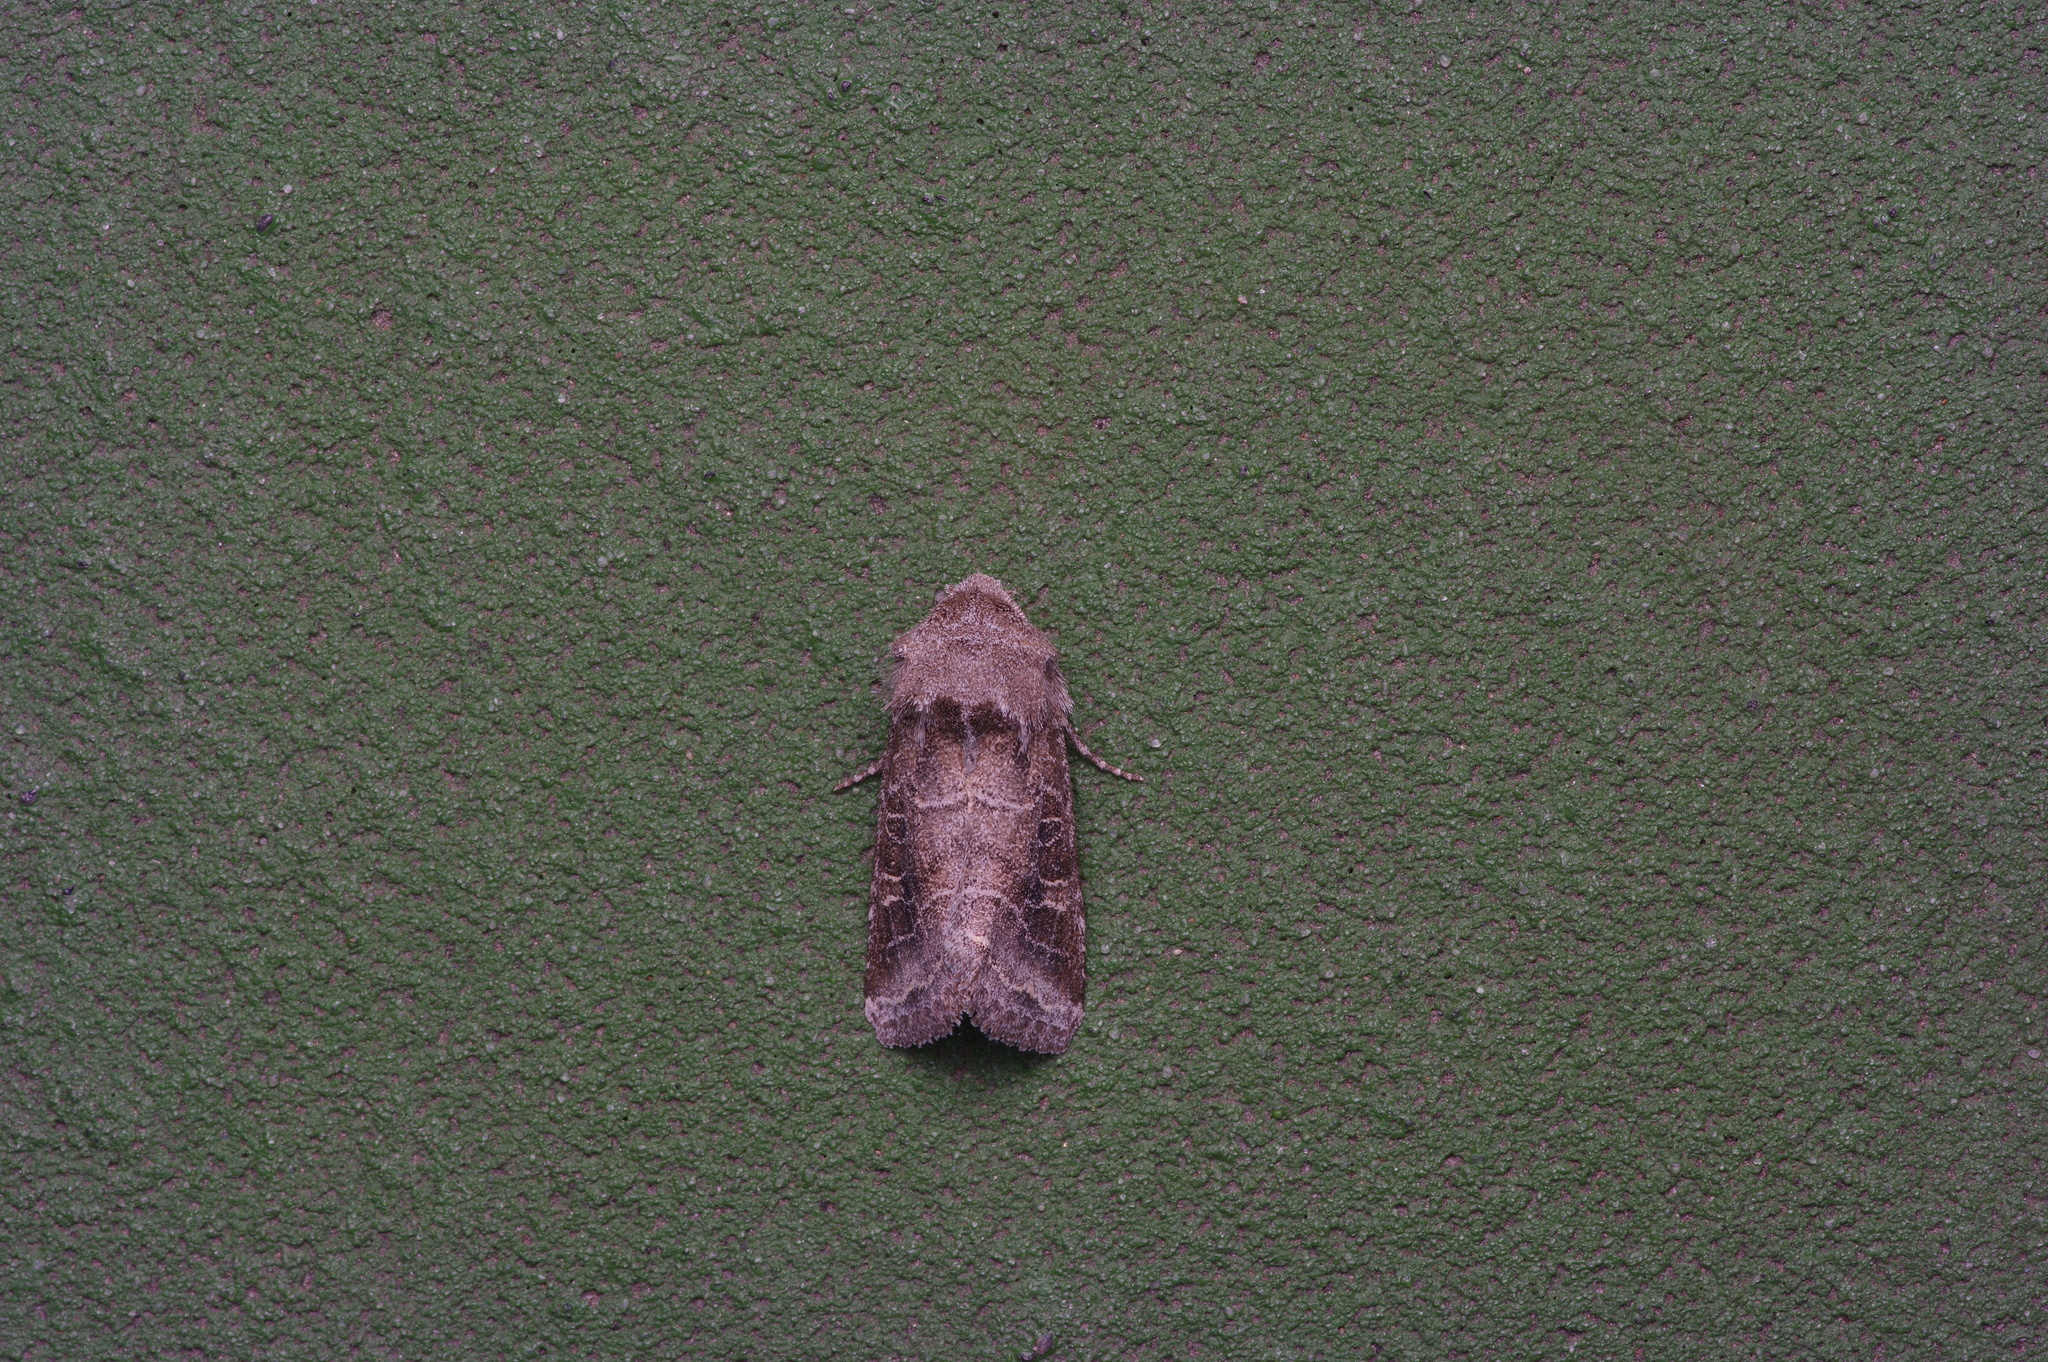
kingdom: Animalia
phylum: Arthropoda
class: Insecta
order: Lepidoptera
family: Noctuidae
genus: Lacinipolia
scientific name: Lacinipolia erecta
